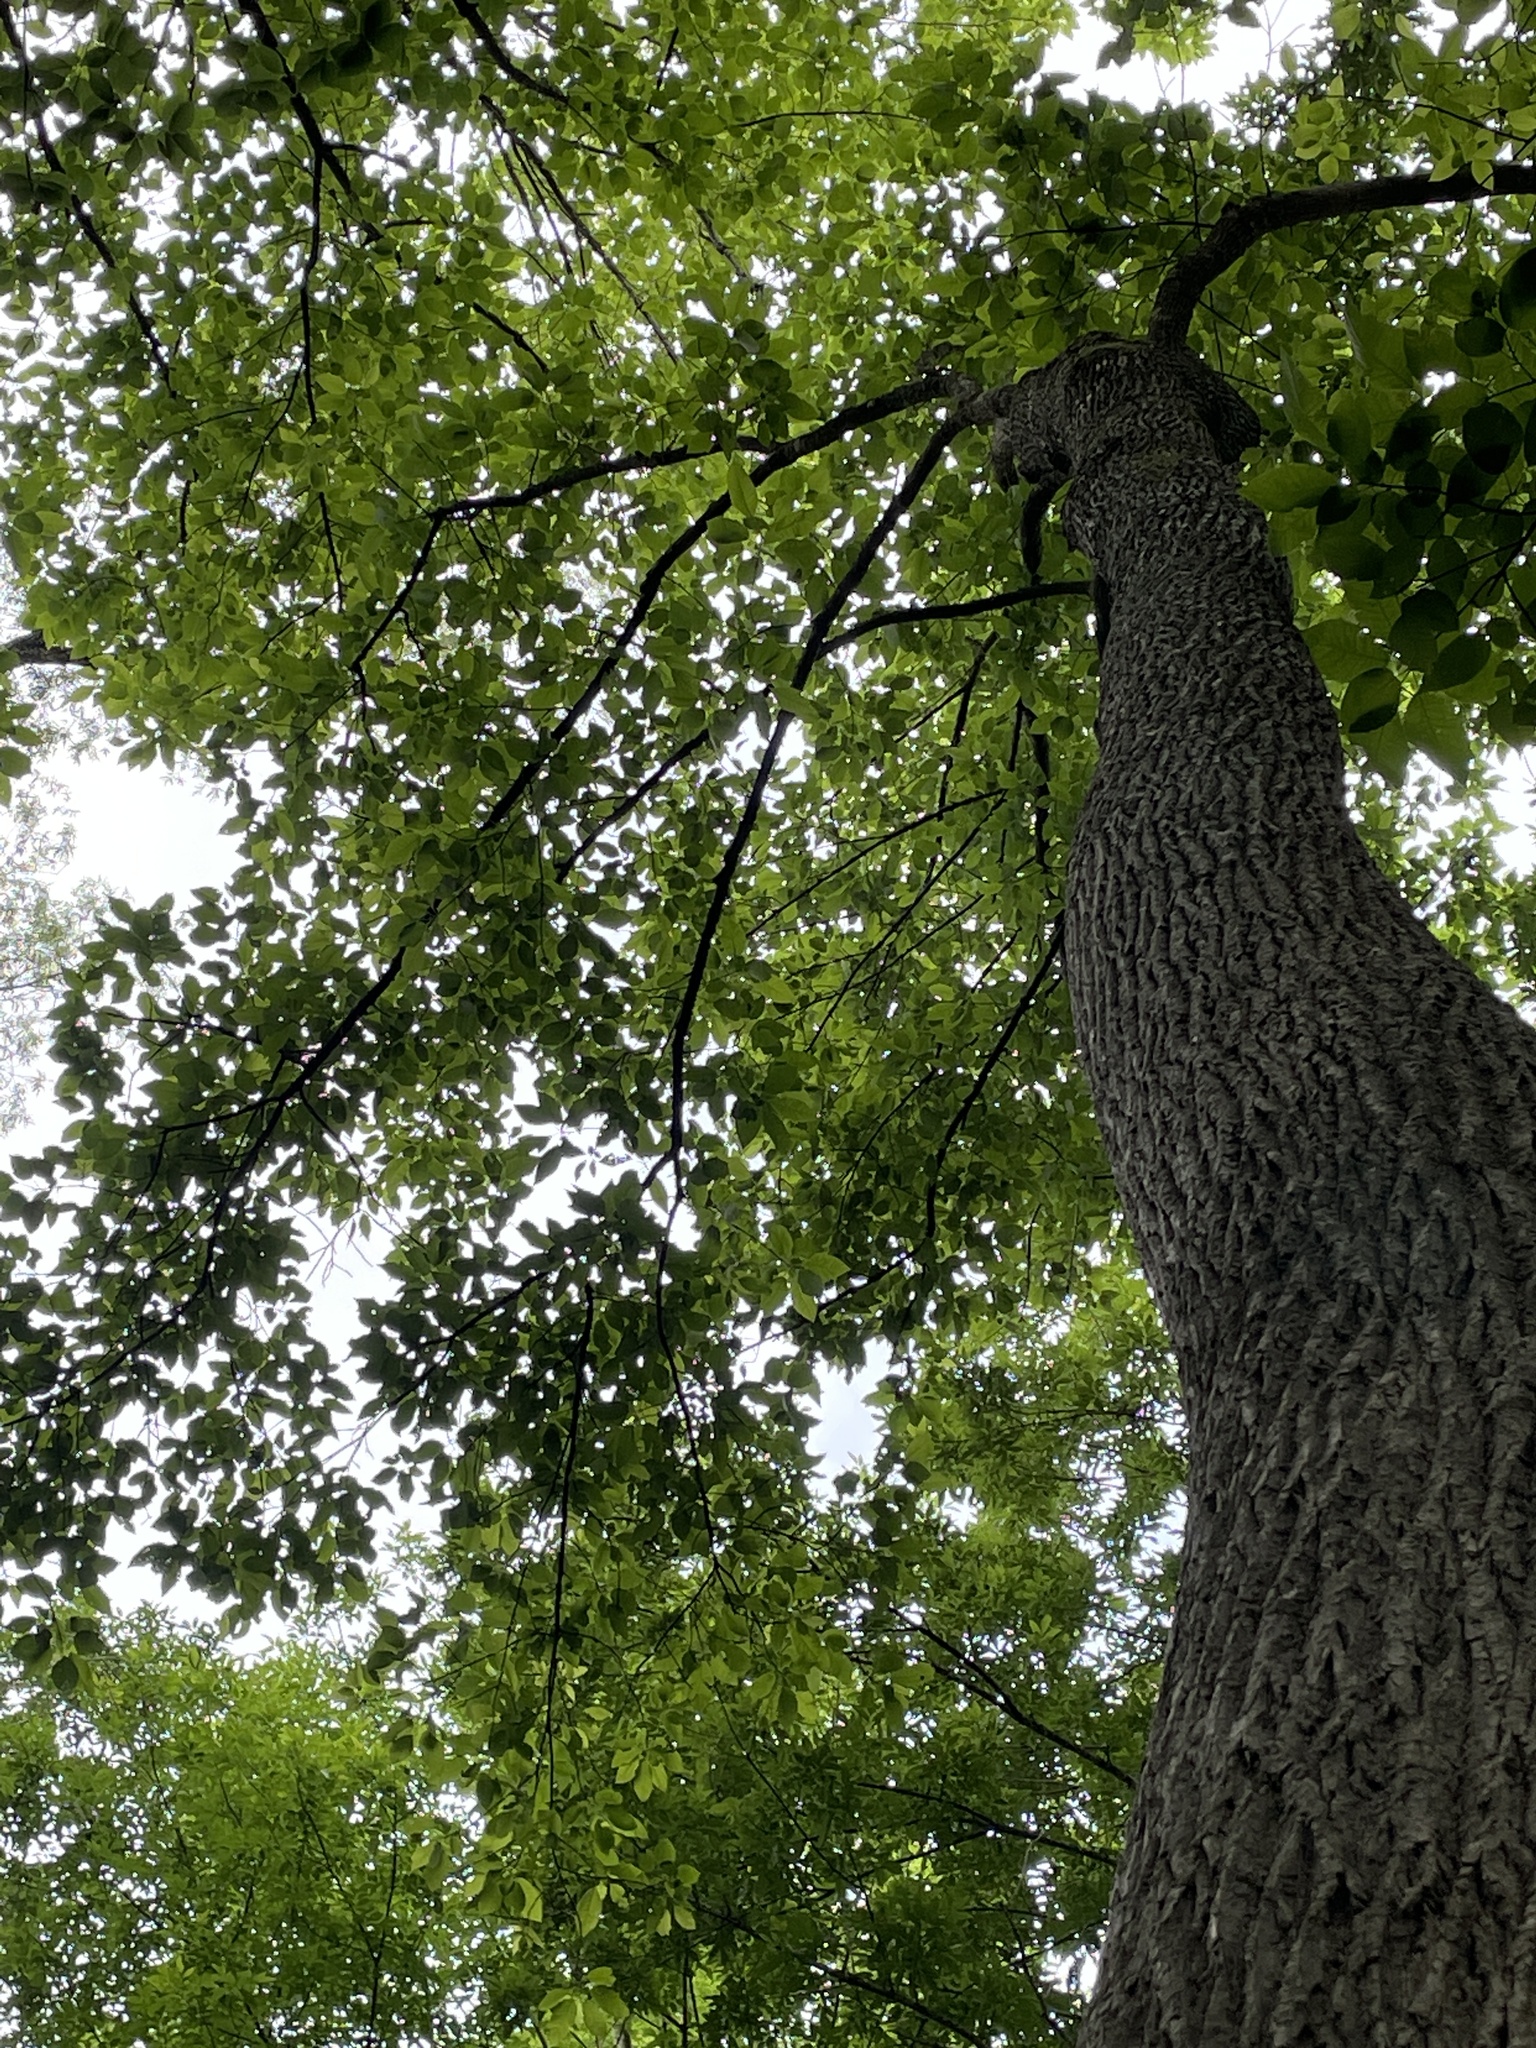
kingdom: Plantae
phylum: Tracheophyta
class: Magnoliopsida
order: Cornales
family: Nyssaceae
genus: Nyssa
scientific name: Nyssa aquatica
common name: Swamp tupelo
